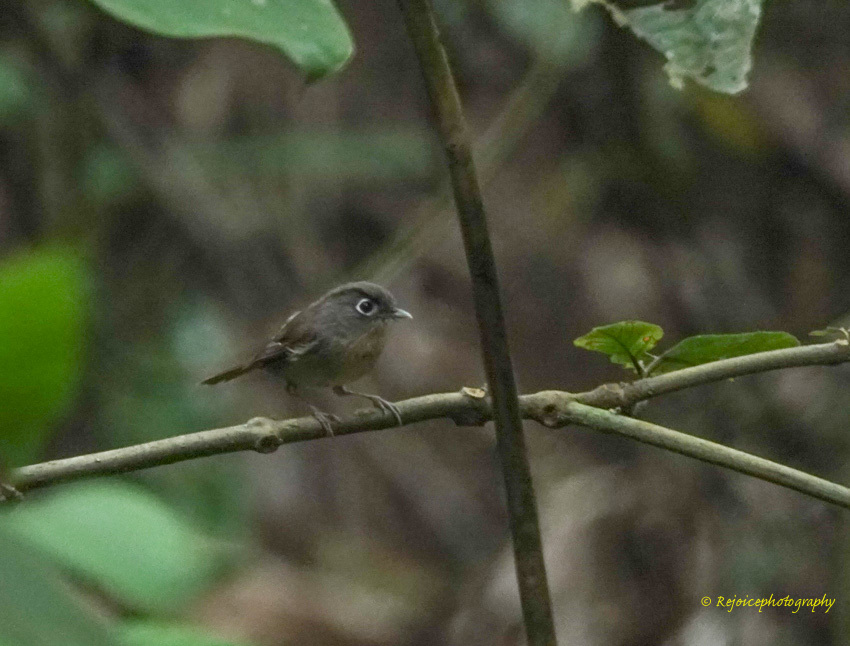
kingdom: Animalia
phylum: Chordata
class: Aves
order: Passeriformes
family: Pellorneidae
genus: Alcippe
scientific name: Alcippe nipalensis
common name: Nepal fulvetta
